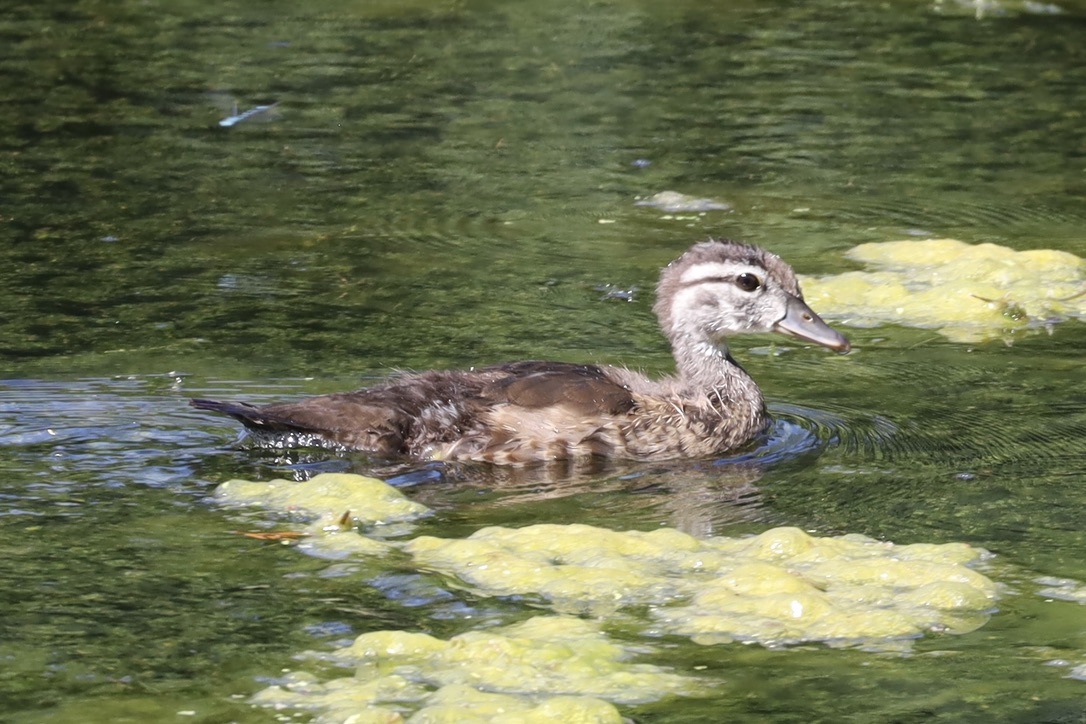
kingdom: Animalia
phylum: Chordata
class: Aves
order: Anseriformes
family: Anatidae
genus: Aix
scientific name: Aix sponsa
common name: Wood duck
